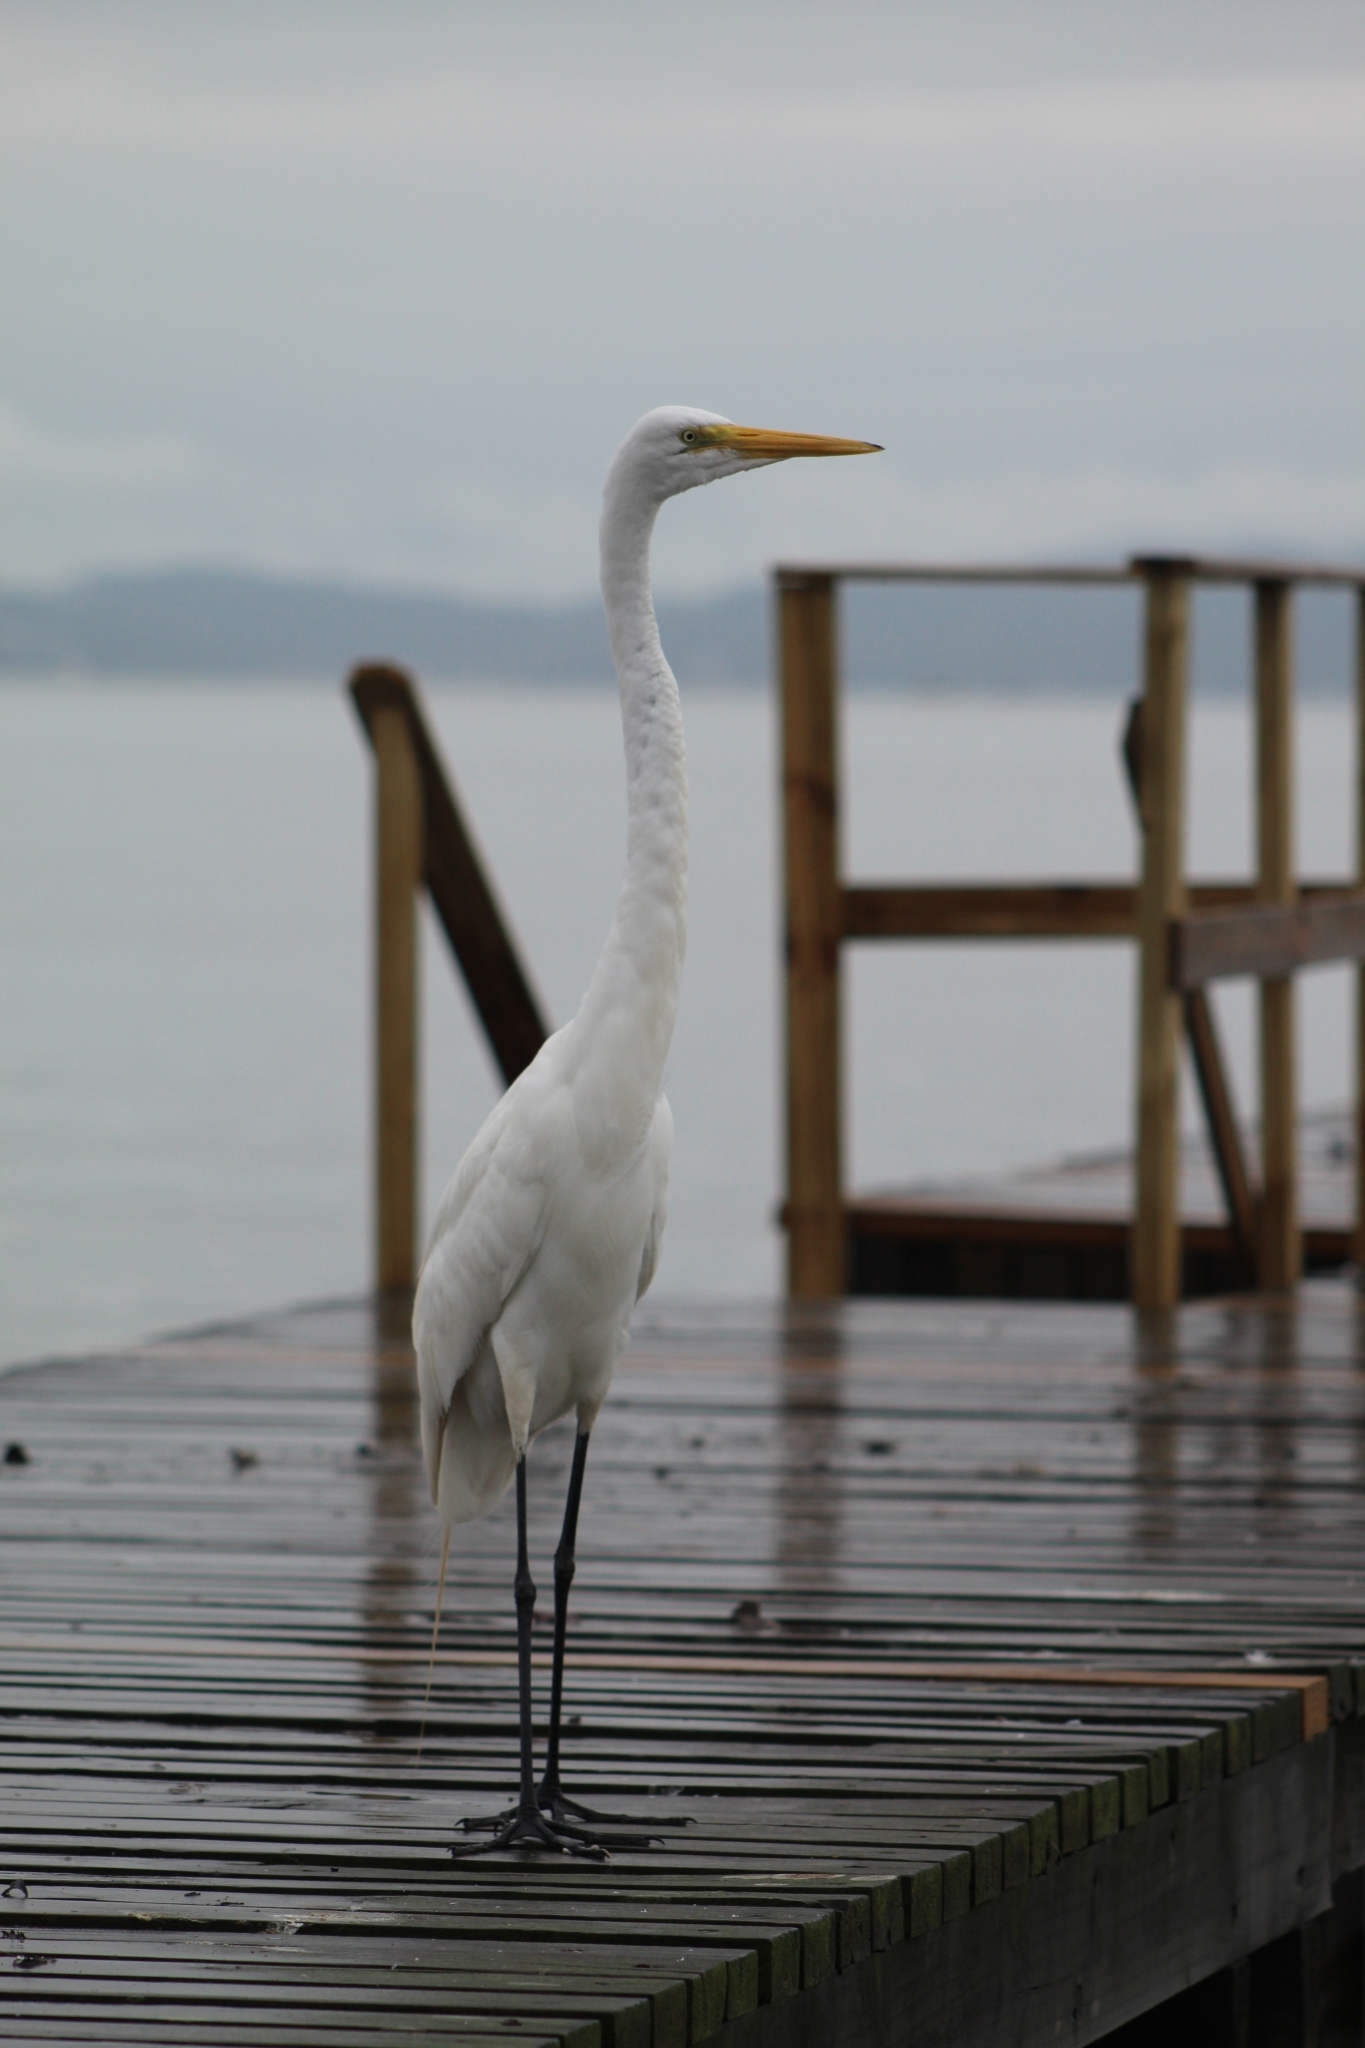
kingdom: Animalia
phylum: Chordata
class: Aves
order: Pelecaniformes
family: Ardeidae
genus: Ardea
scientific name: Ardea alba
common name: Great egret
